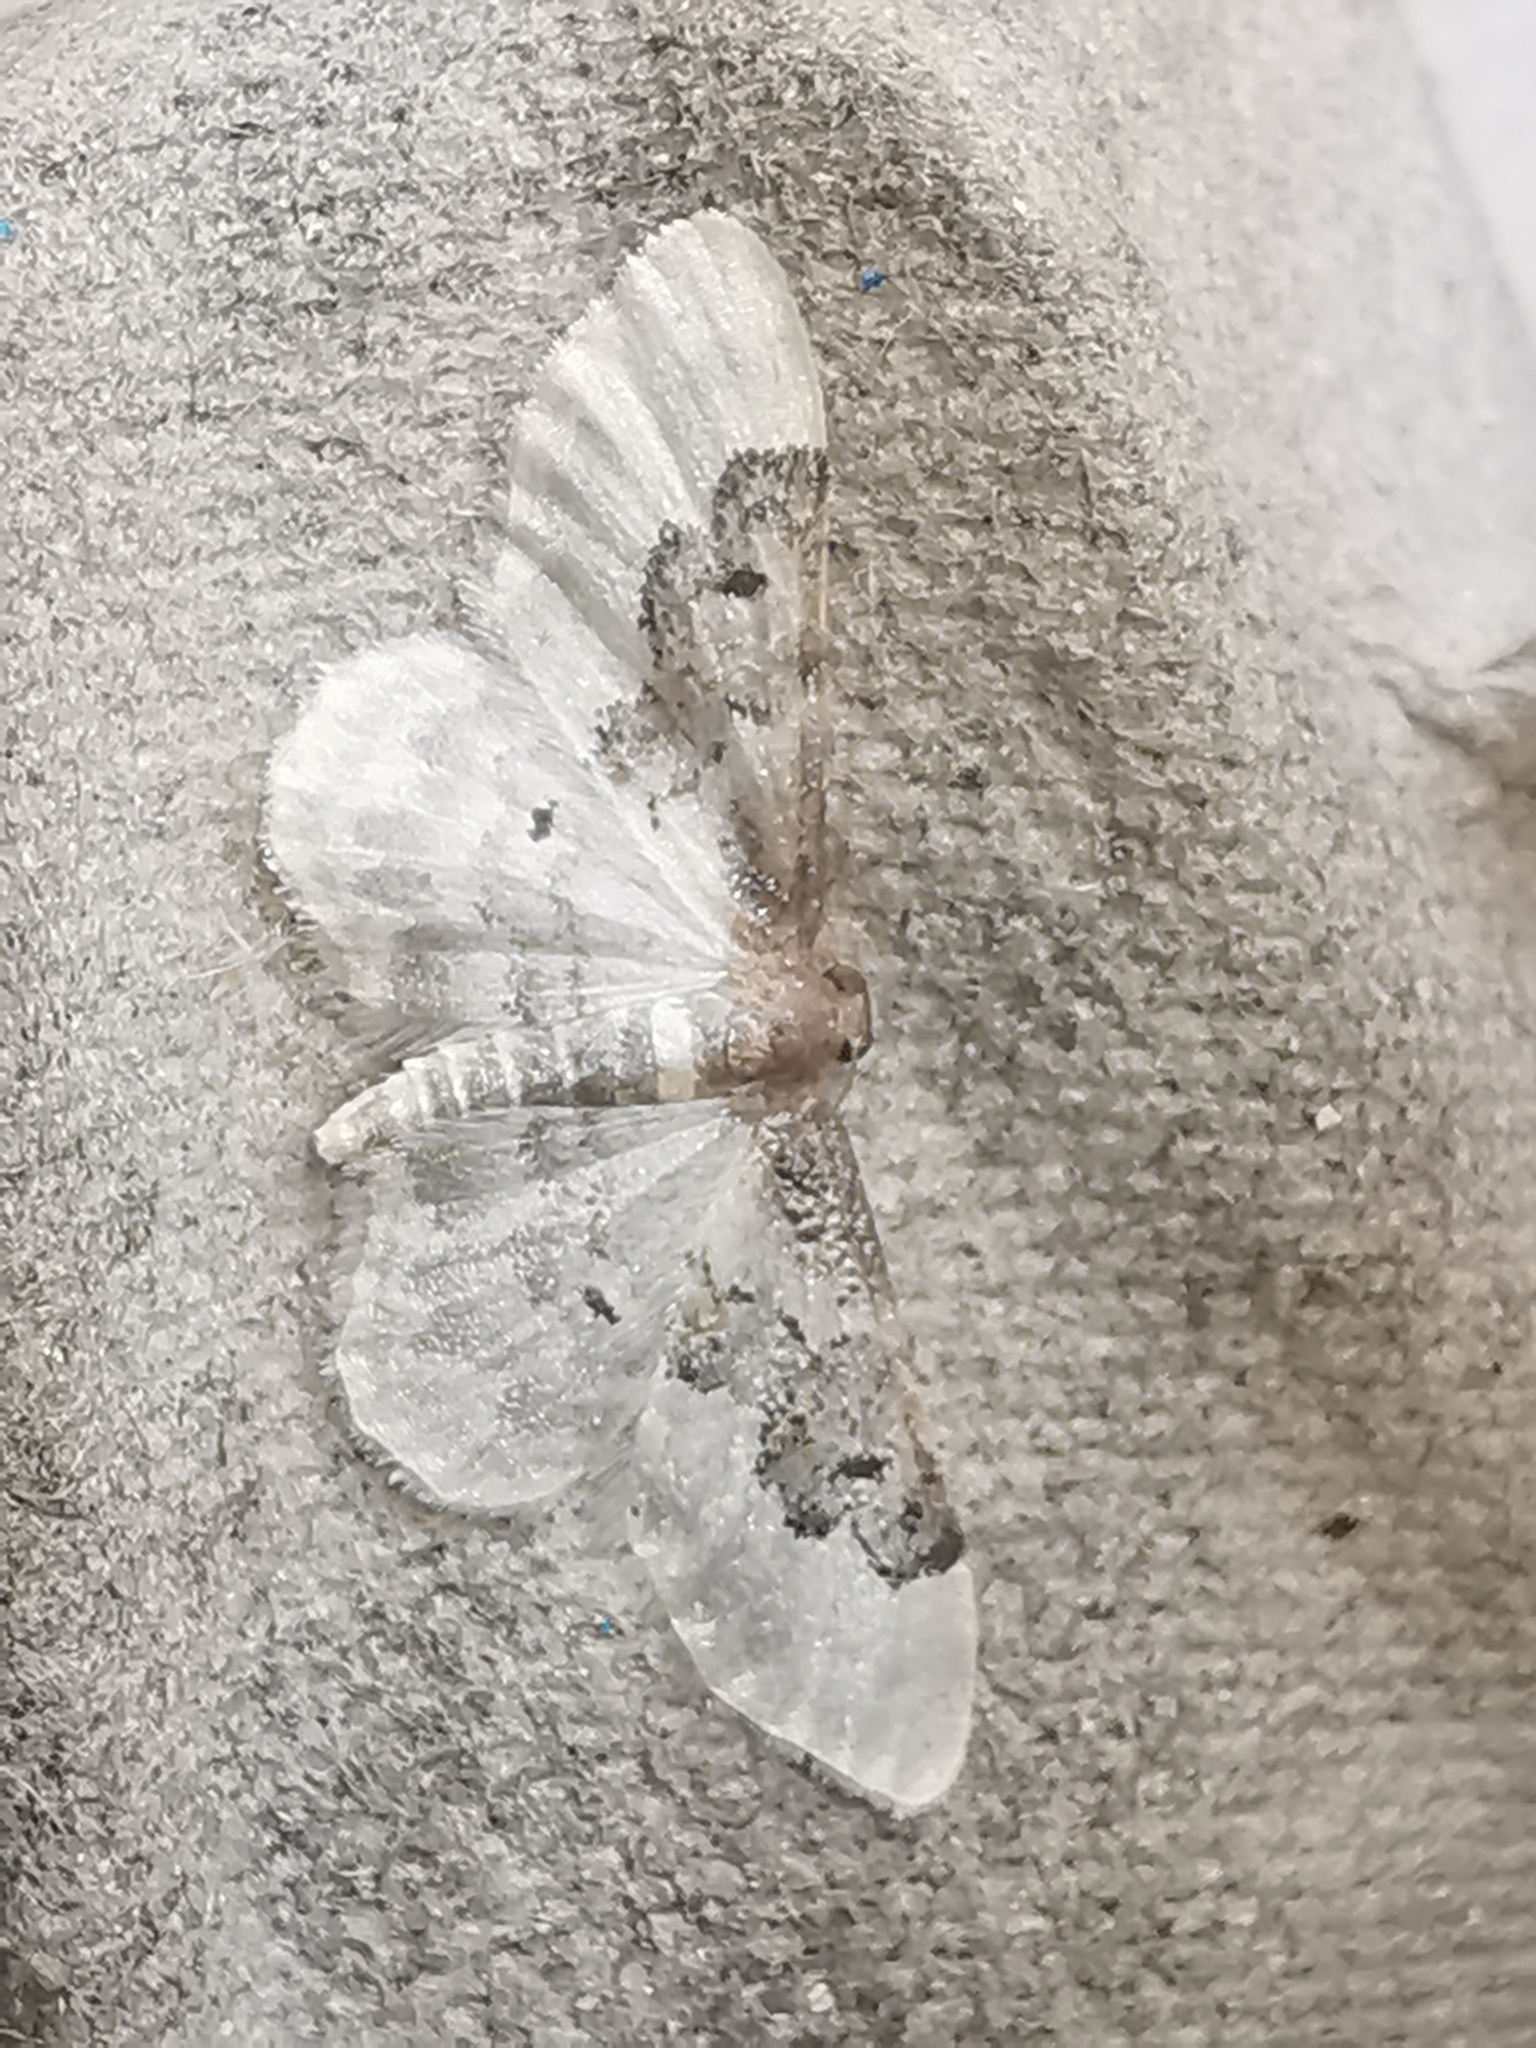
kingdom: Animalia
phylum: Arthropoda
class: Insecta
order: Lepidoptera
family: Geometridae
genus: Idaea
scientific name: Idaea rusticata
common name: Least carpet
